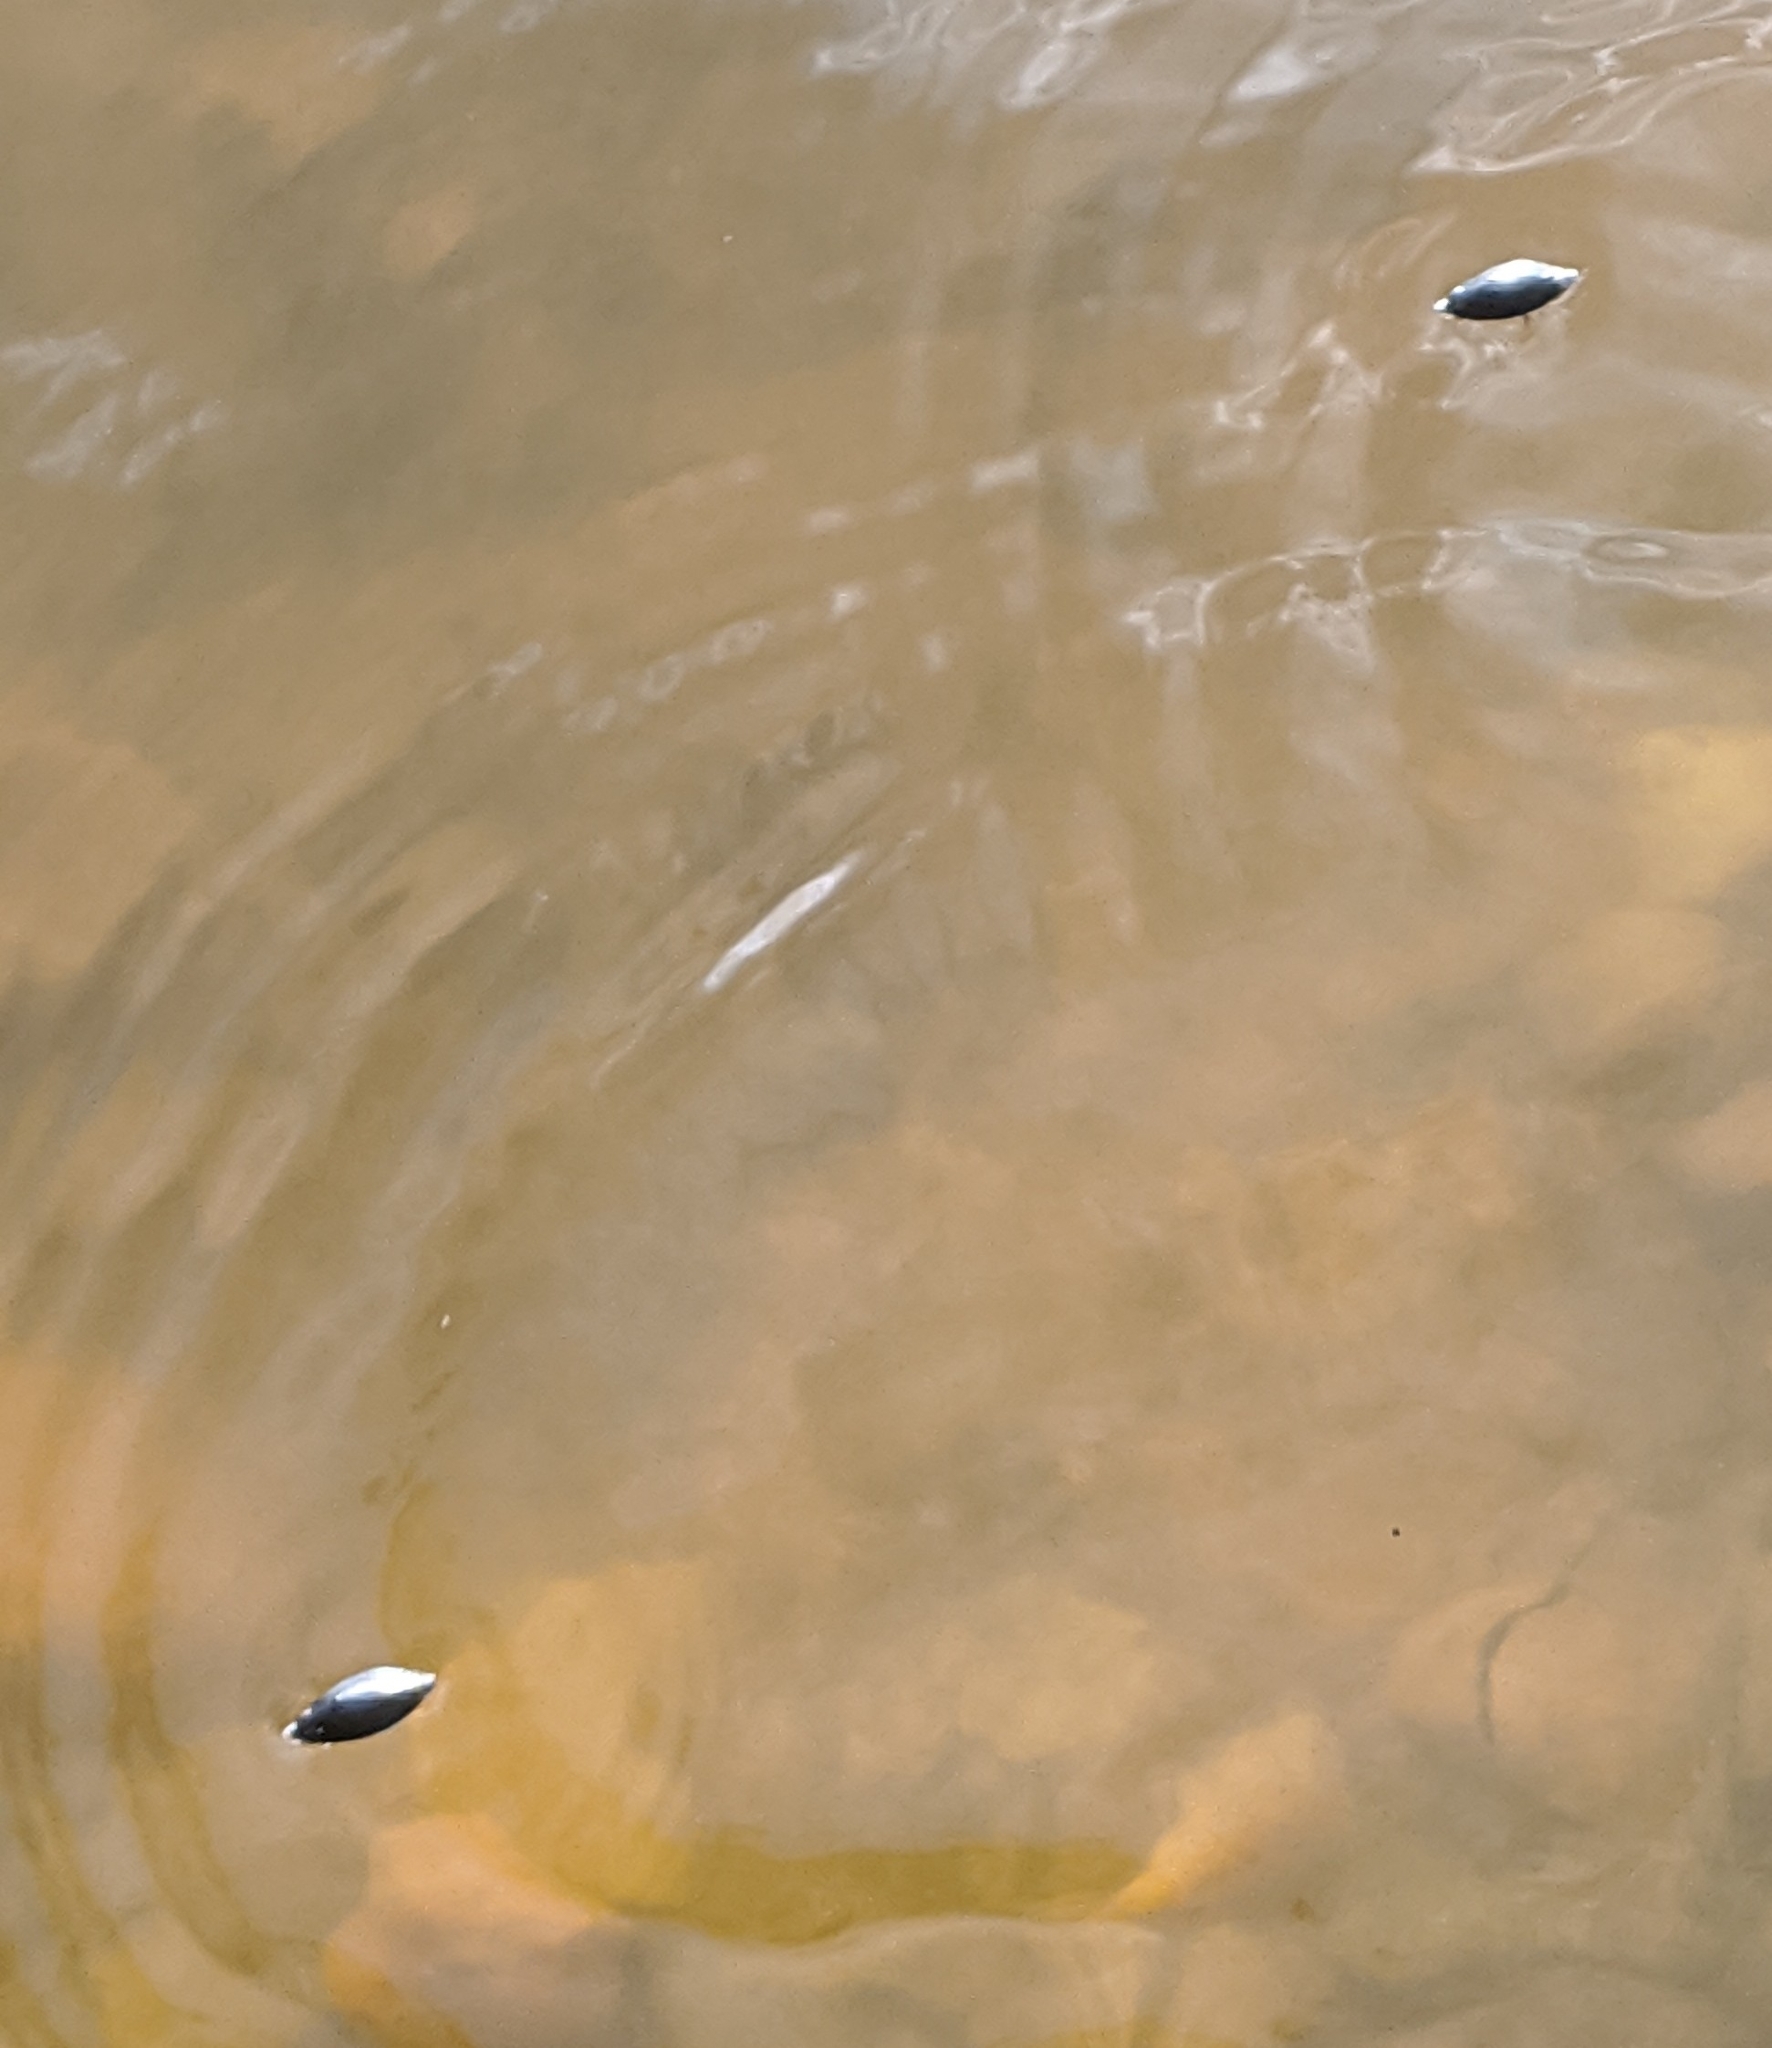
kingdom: Animalia
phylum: Arthropoda
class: Insecta
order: Coleoptera
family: Gyrinidae
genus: Dineutus
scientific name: Dineutus
